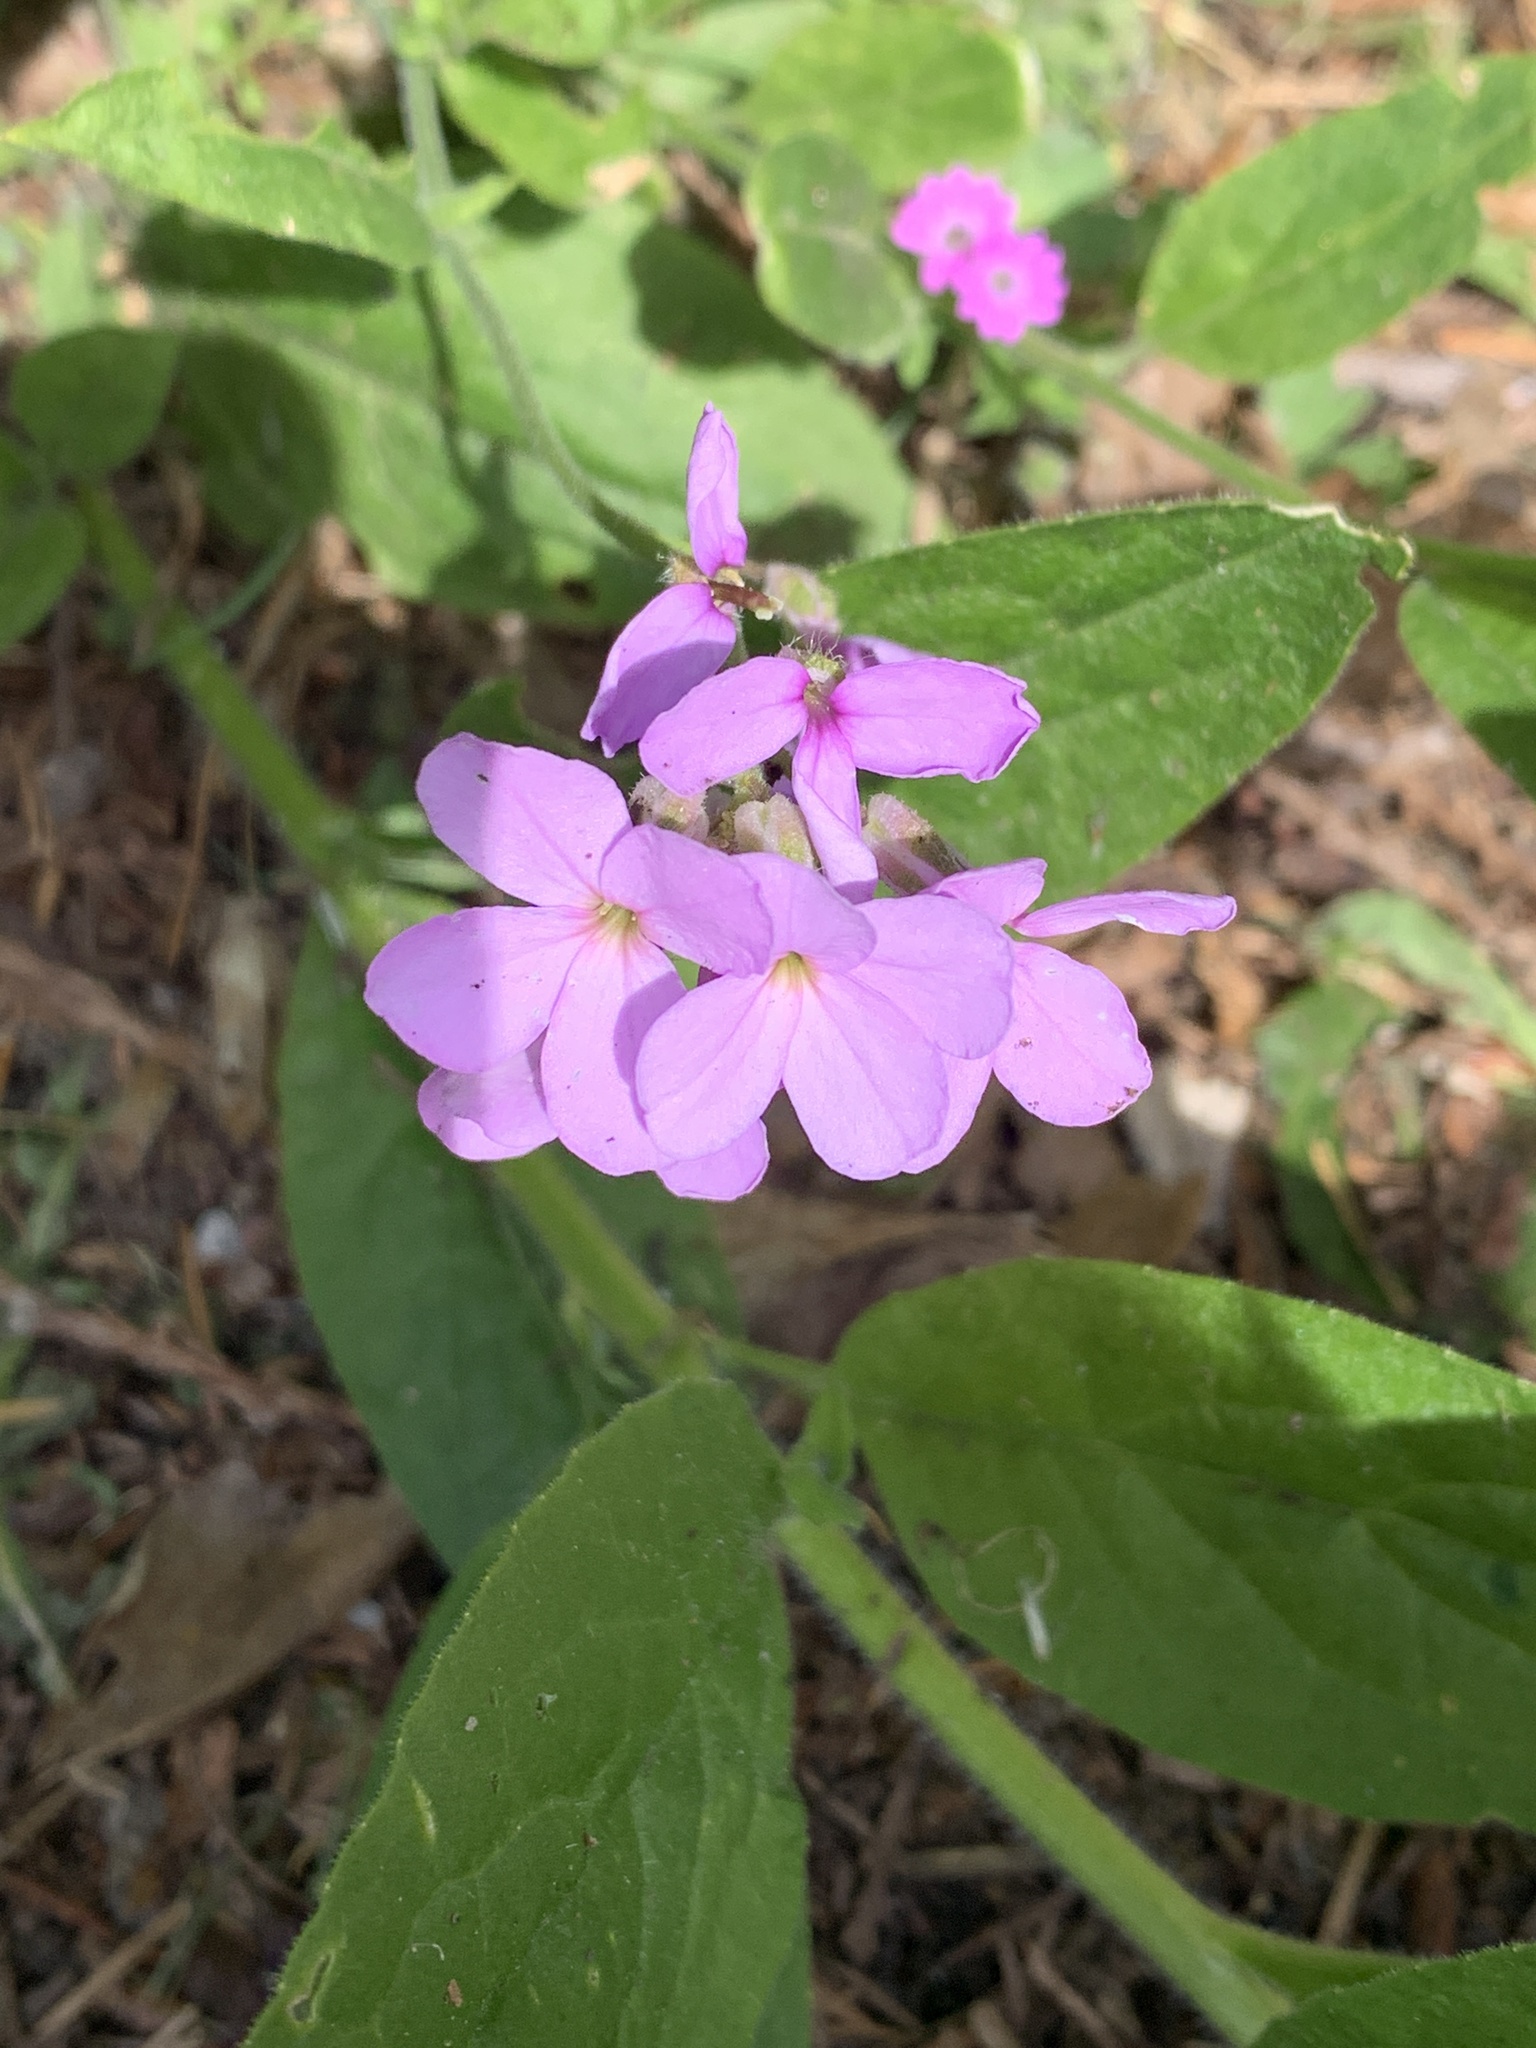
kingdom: Plantae
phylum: Tracheophyta
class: Magnoliopsida
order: Brassicales
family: Brassicaceae
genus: Hesperis
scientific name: Hesperis matronalis
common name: Dame's-violet
